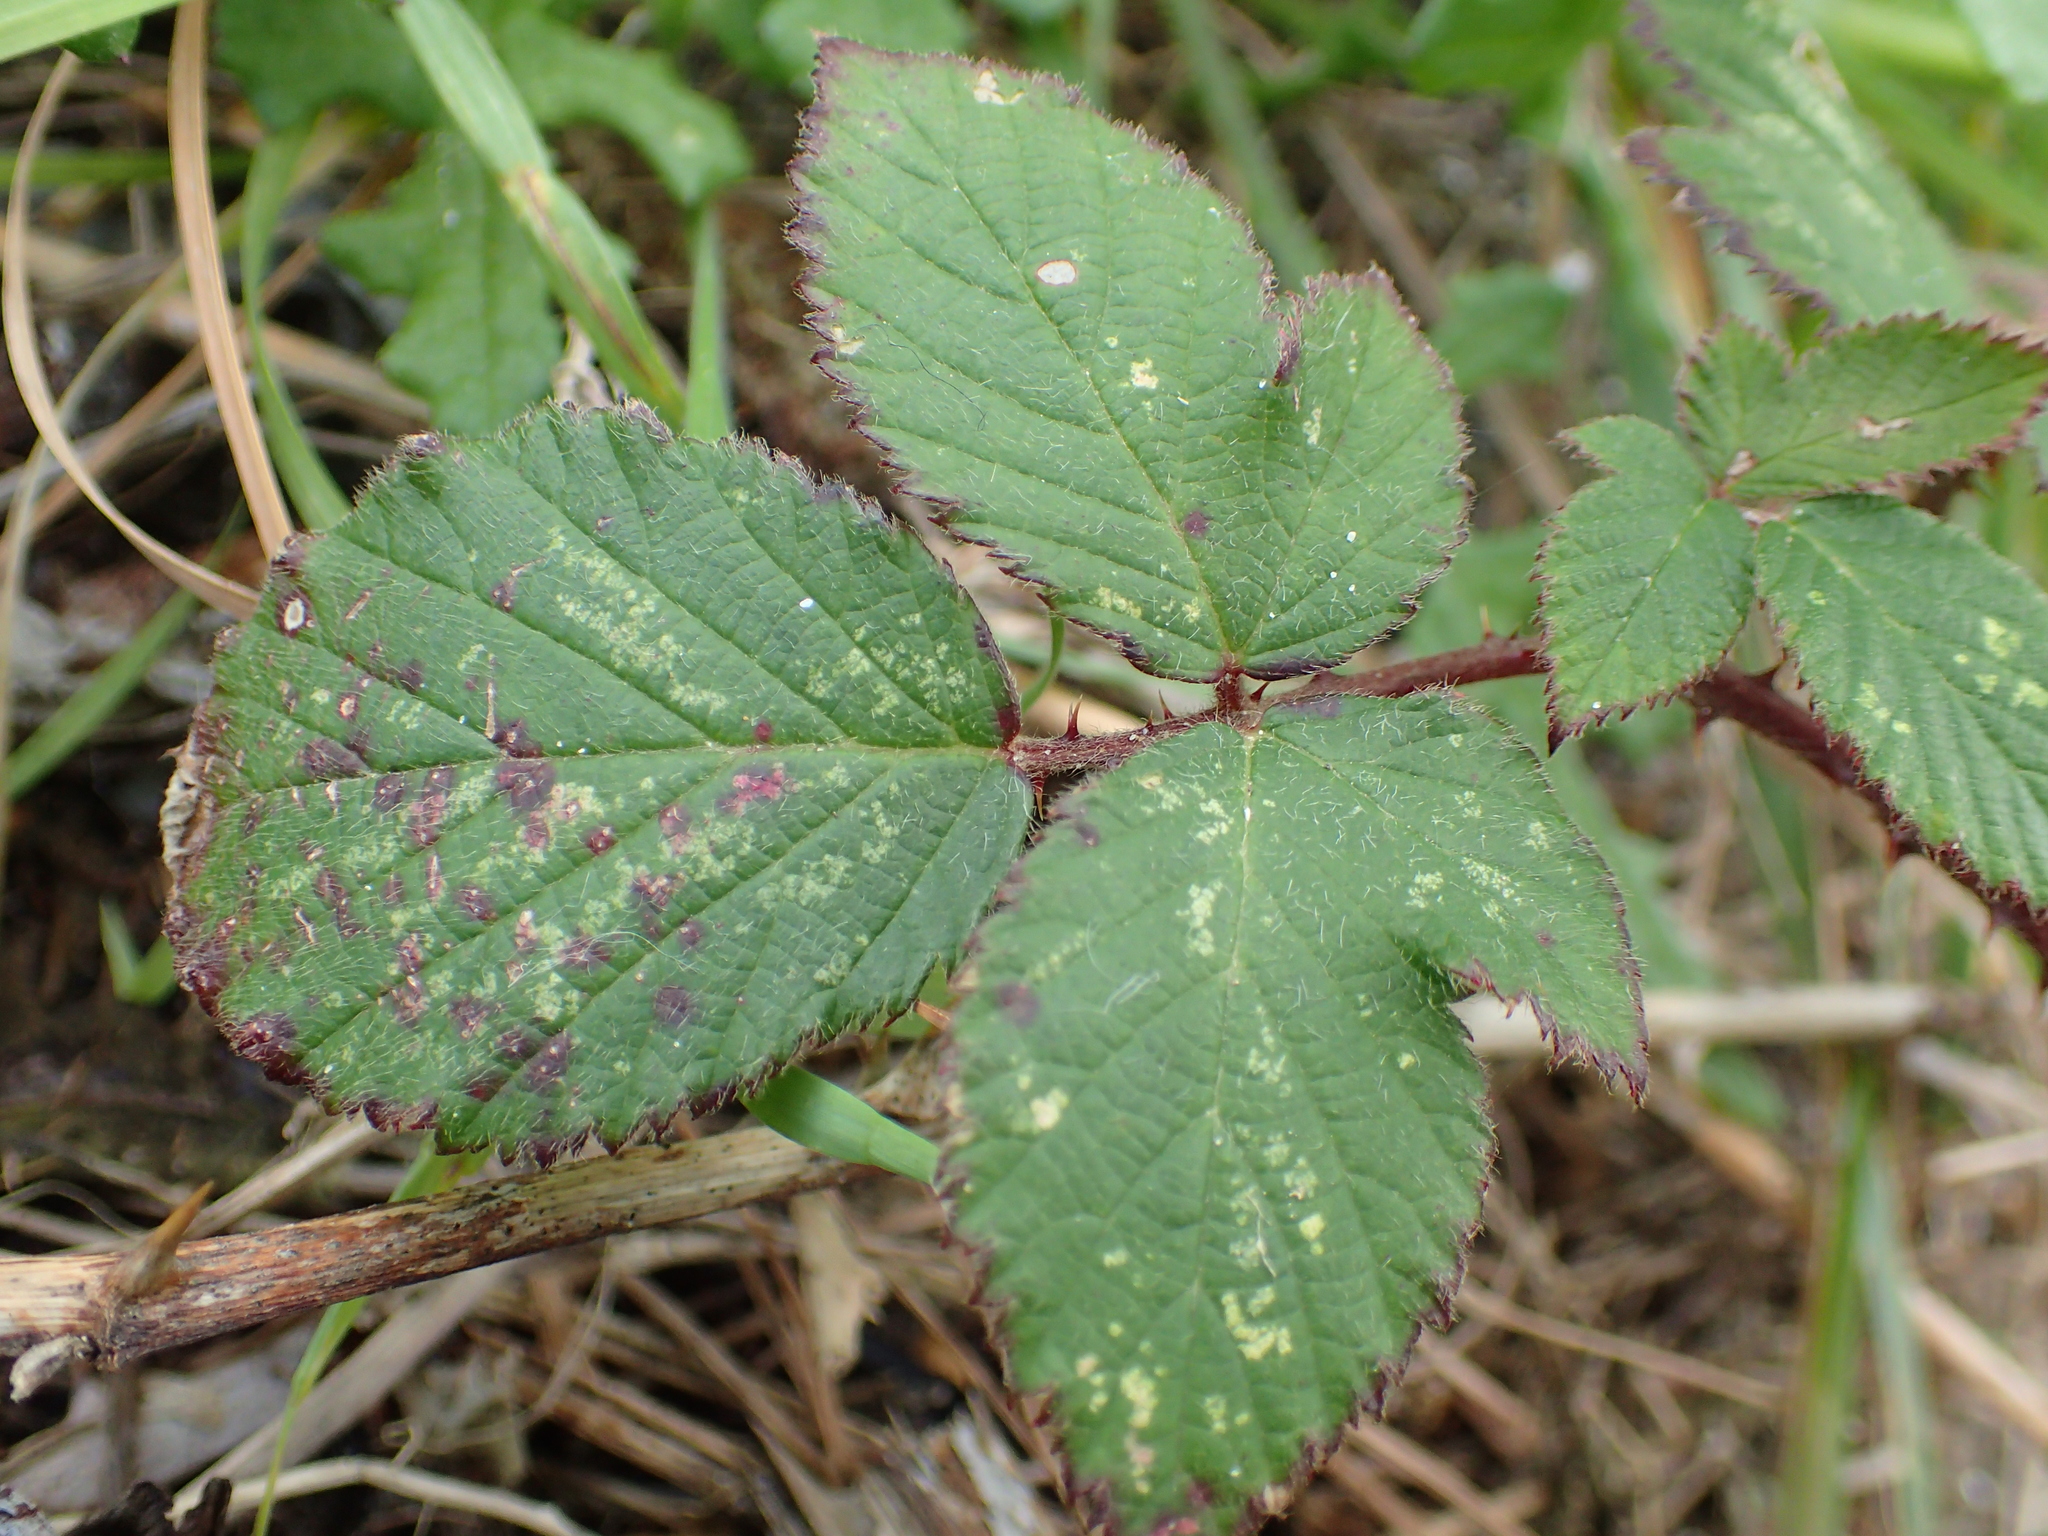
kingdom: Plantae
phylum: Tracheophyta
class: Magnoliopsida
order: Rosales
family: Rosaceae
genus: Rubus
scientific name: Rubus
